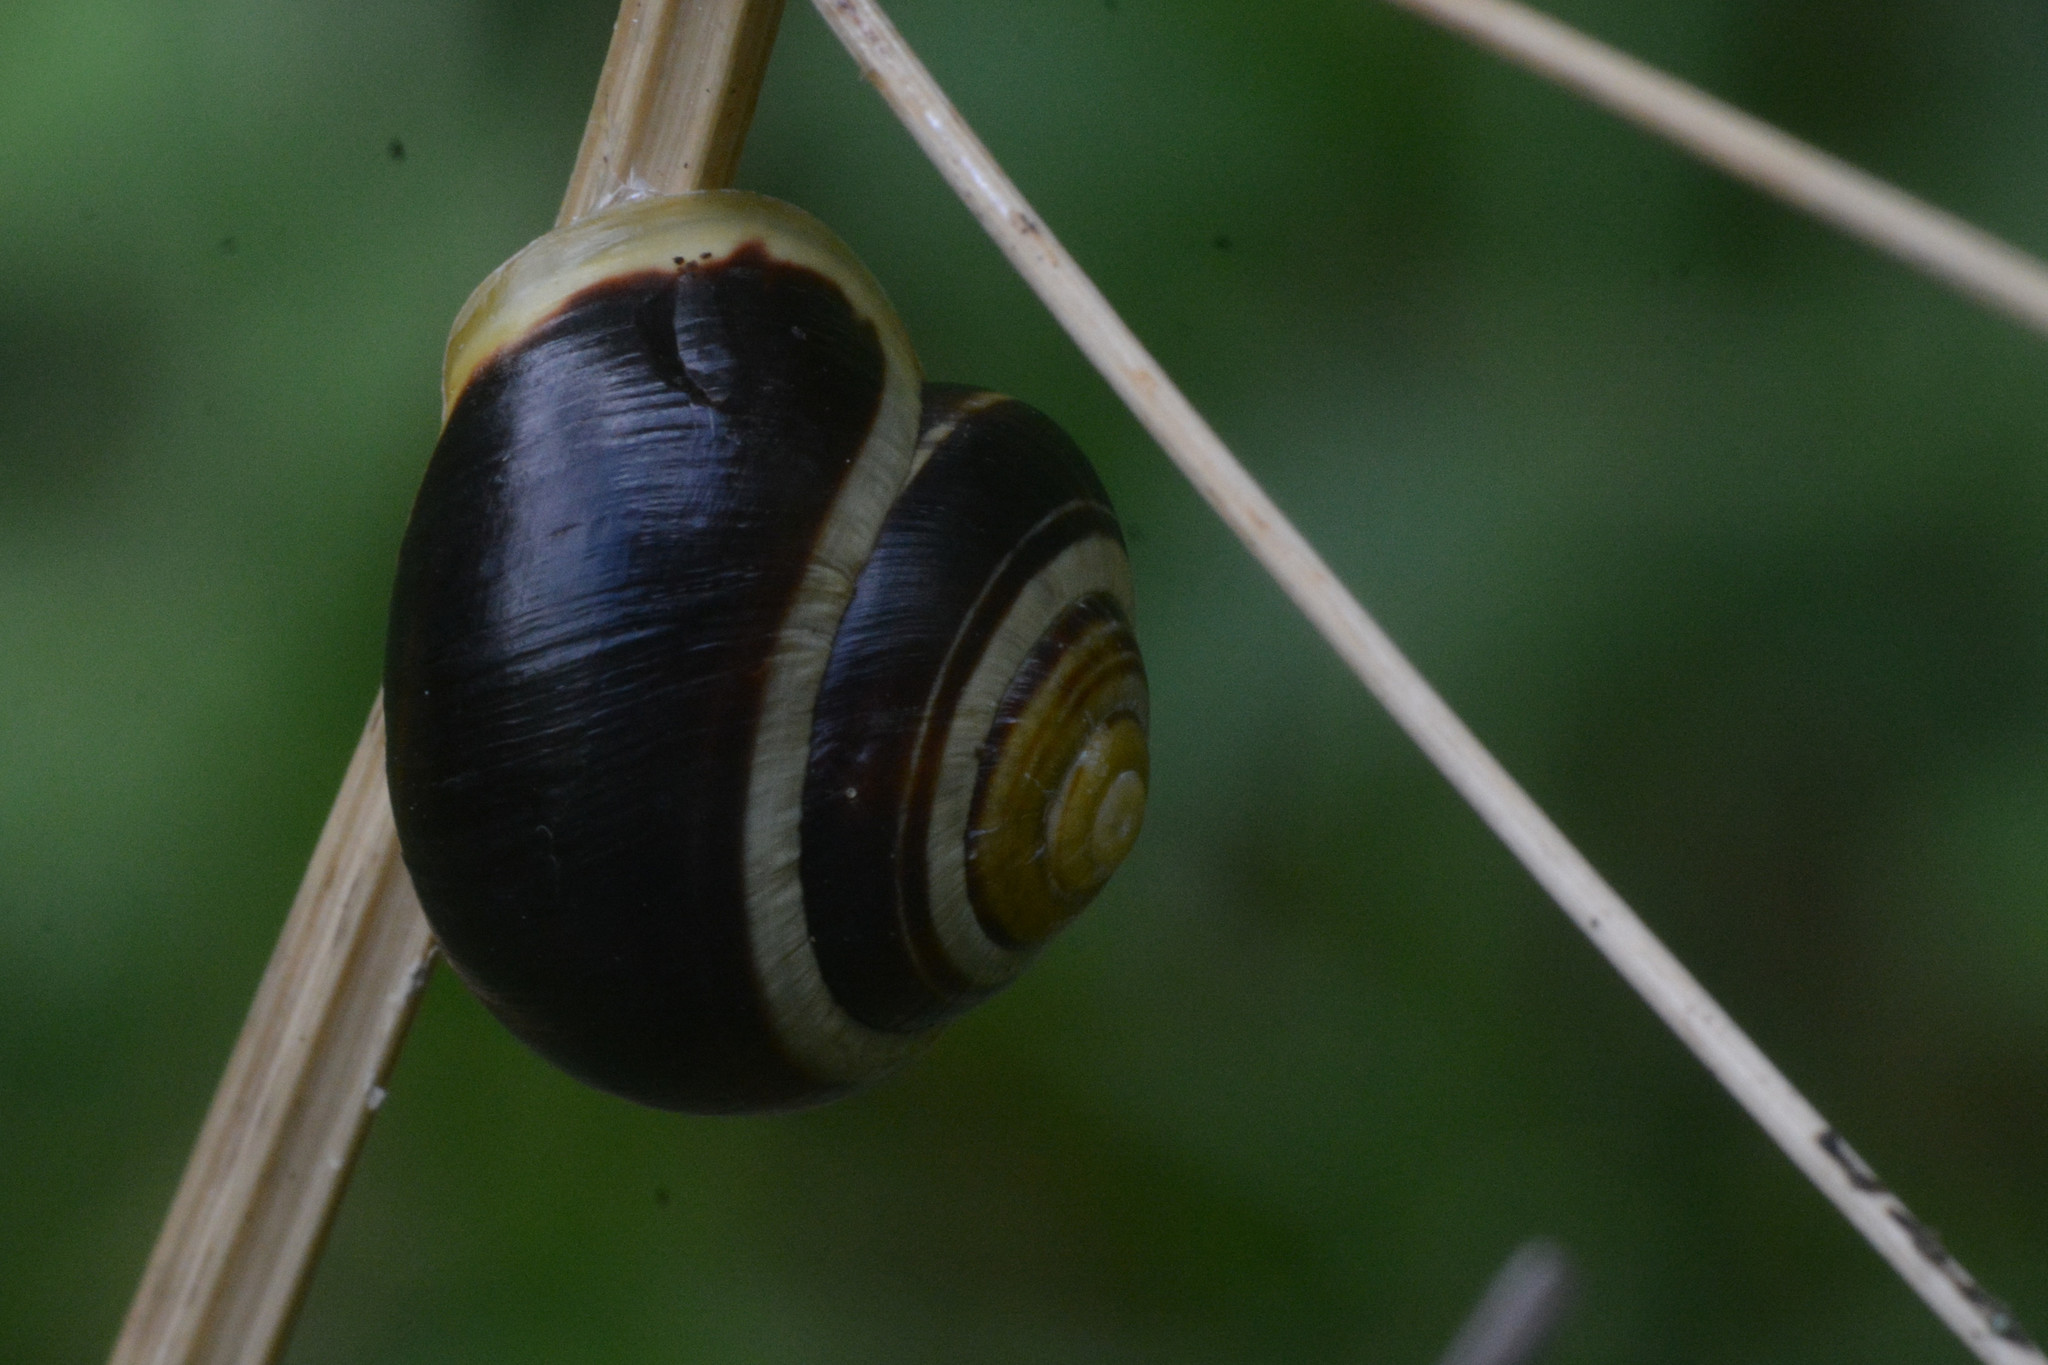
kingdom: Animalia
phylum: Mollusca
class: Gastropoda
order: Stylommatophora
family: Helicidae
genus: Cepaea
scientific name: Cepaea hortensis
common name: White-lip gardensnail
